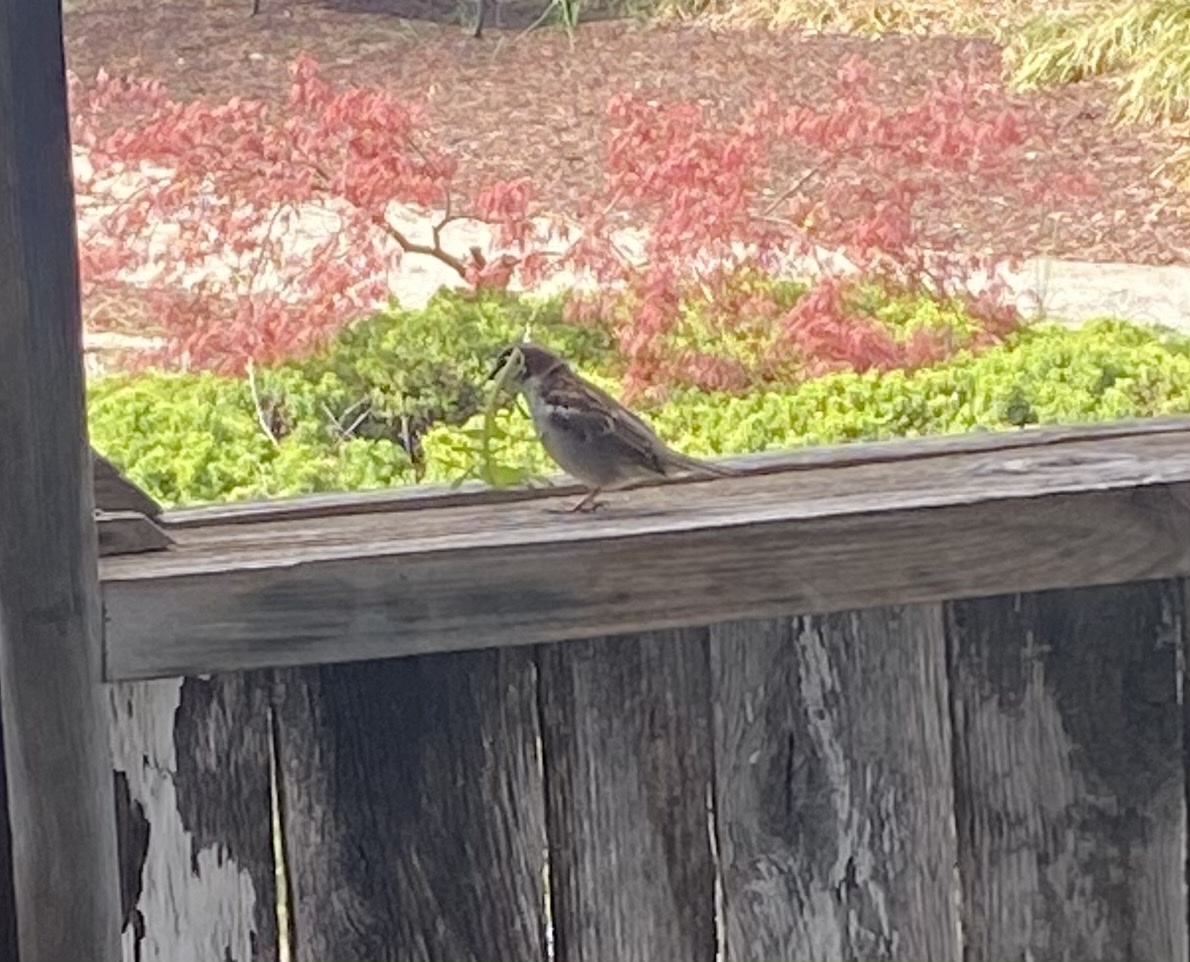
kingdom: Animalia
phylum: Chordata
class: Aves
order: Passeriformes
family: Passeridae
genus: Passer
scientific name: Passer domesticus
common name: House sparrow
